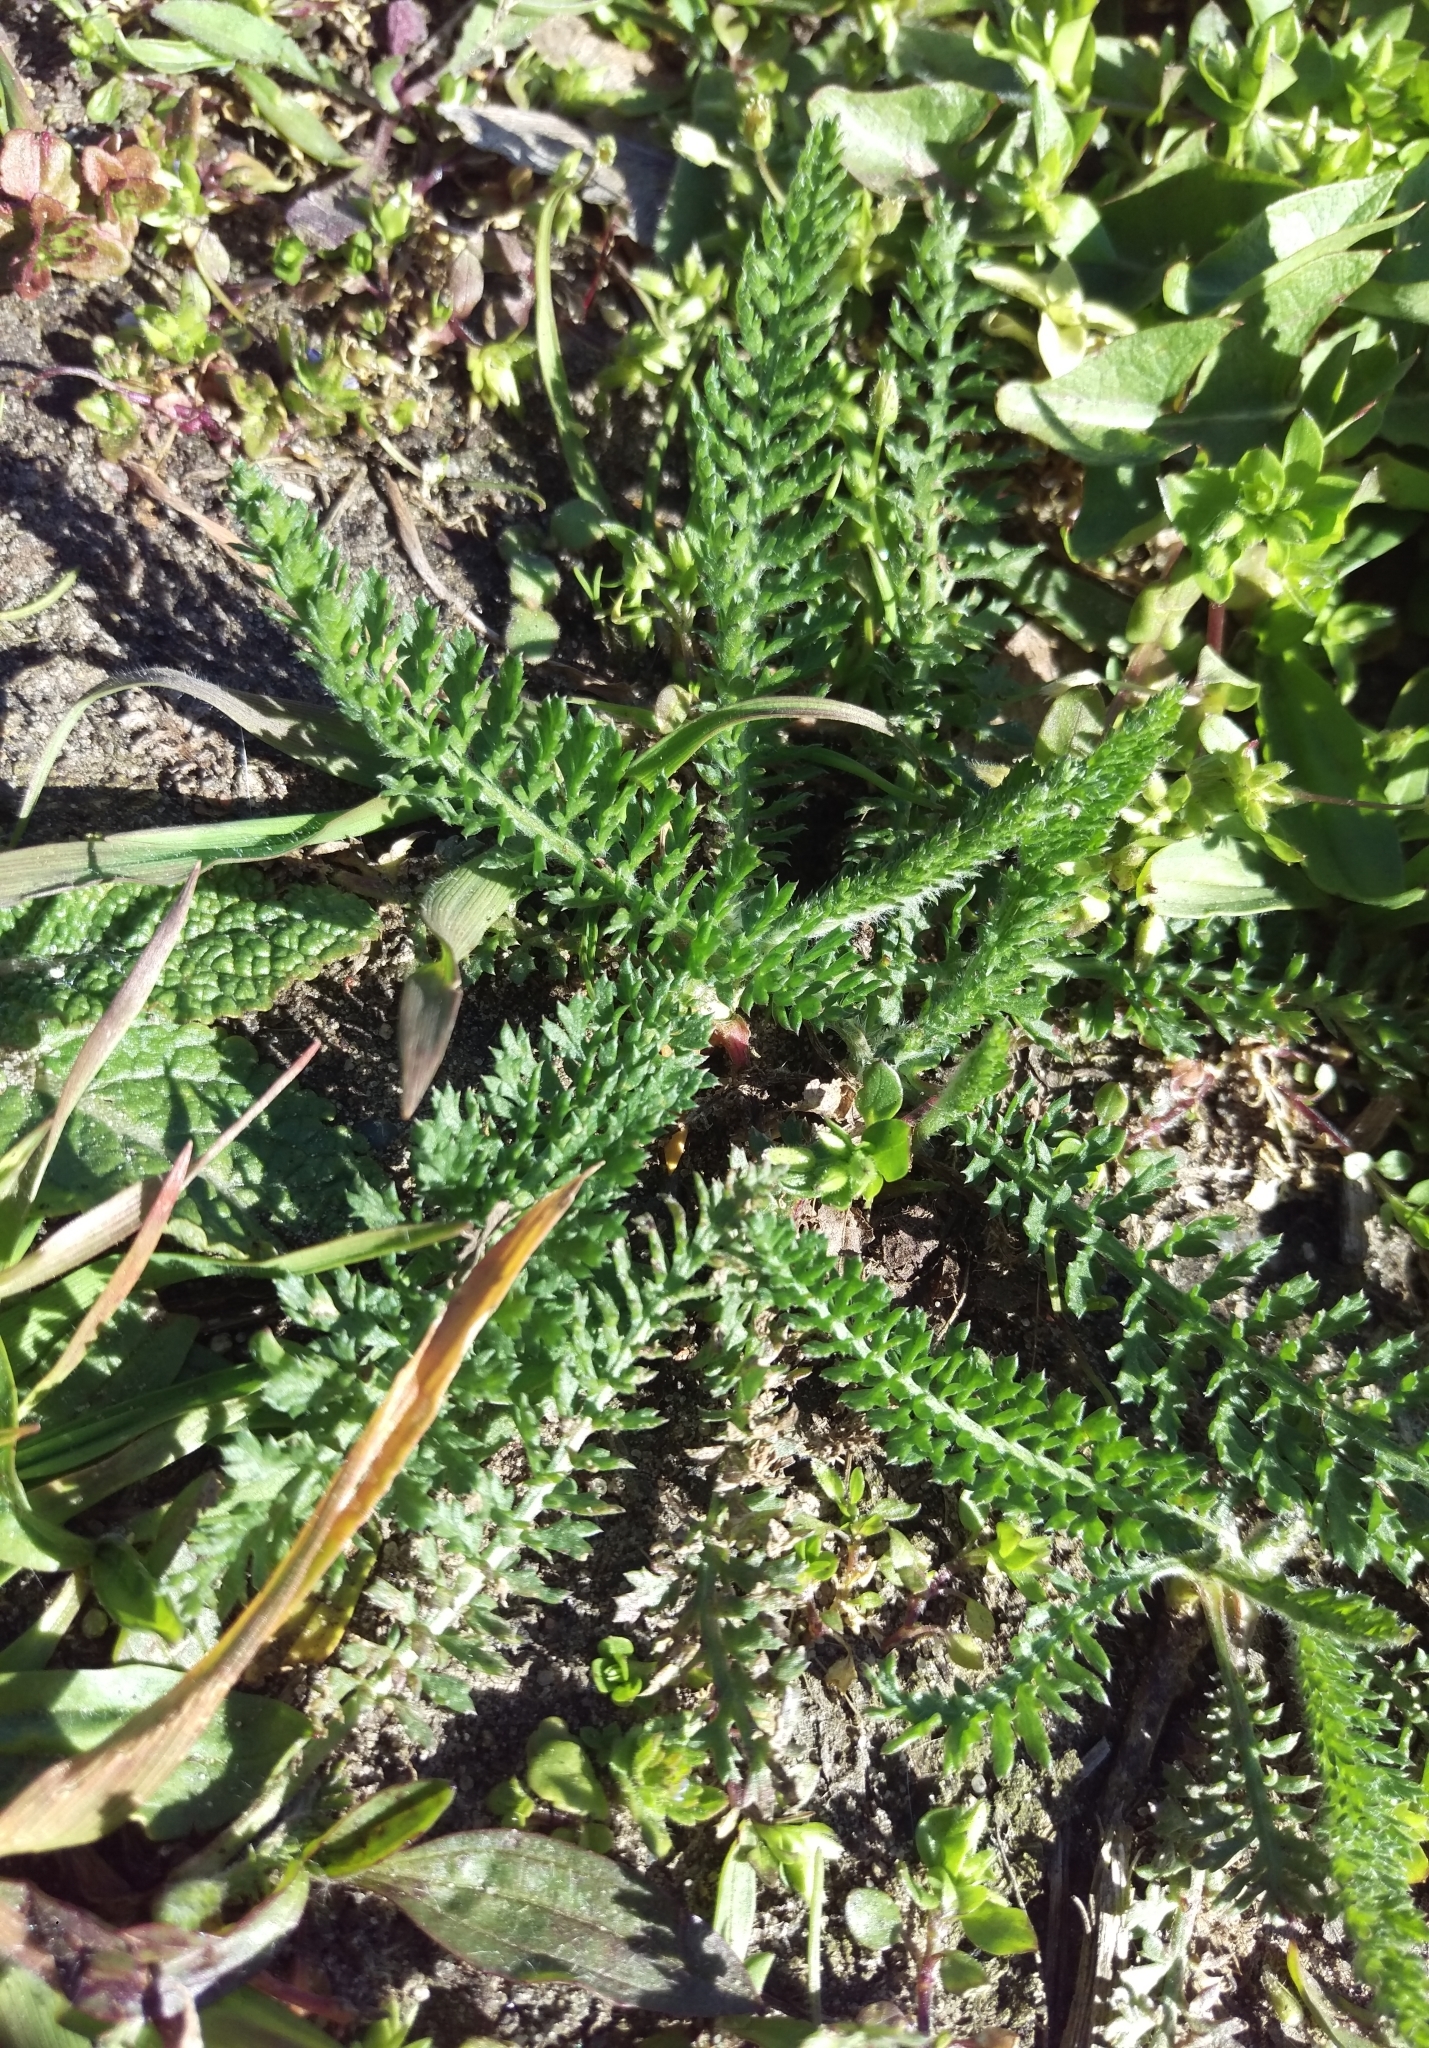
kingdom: Plantae
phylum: Tracheophyta
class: Magnoliopsida
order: Asterales
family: Asteraceae
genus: Achillea
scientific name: Achillea millefolium
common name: Yarrow
